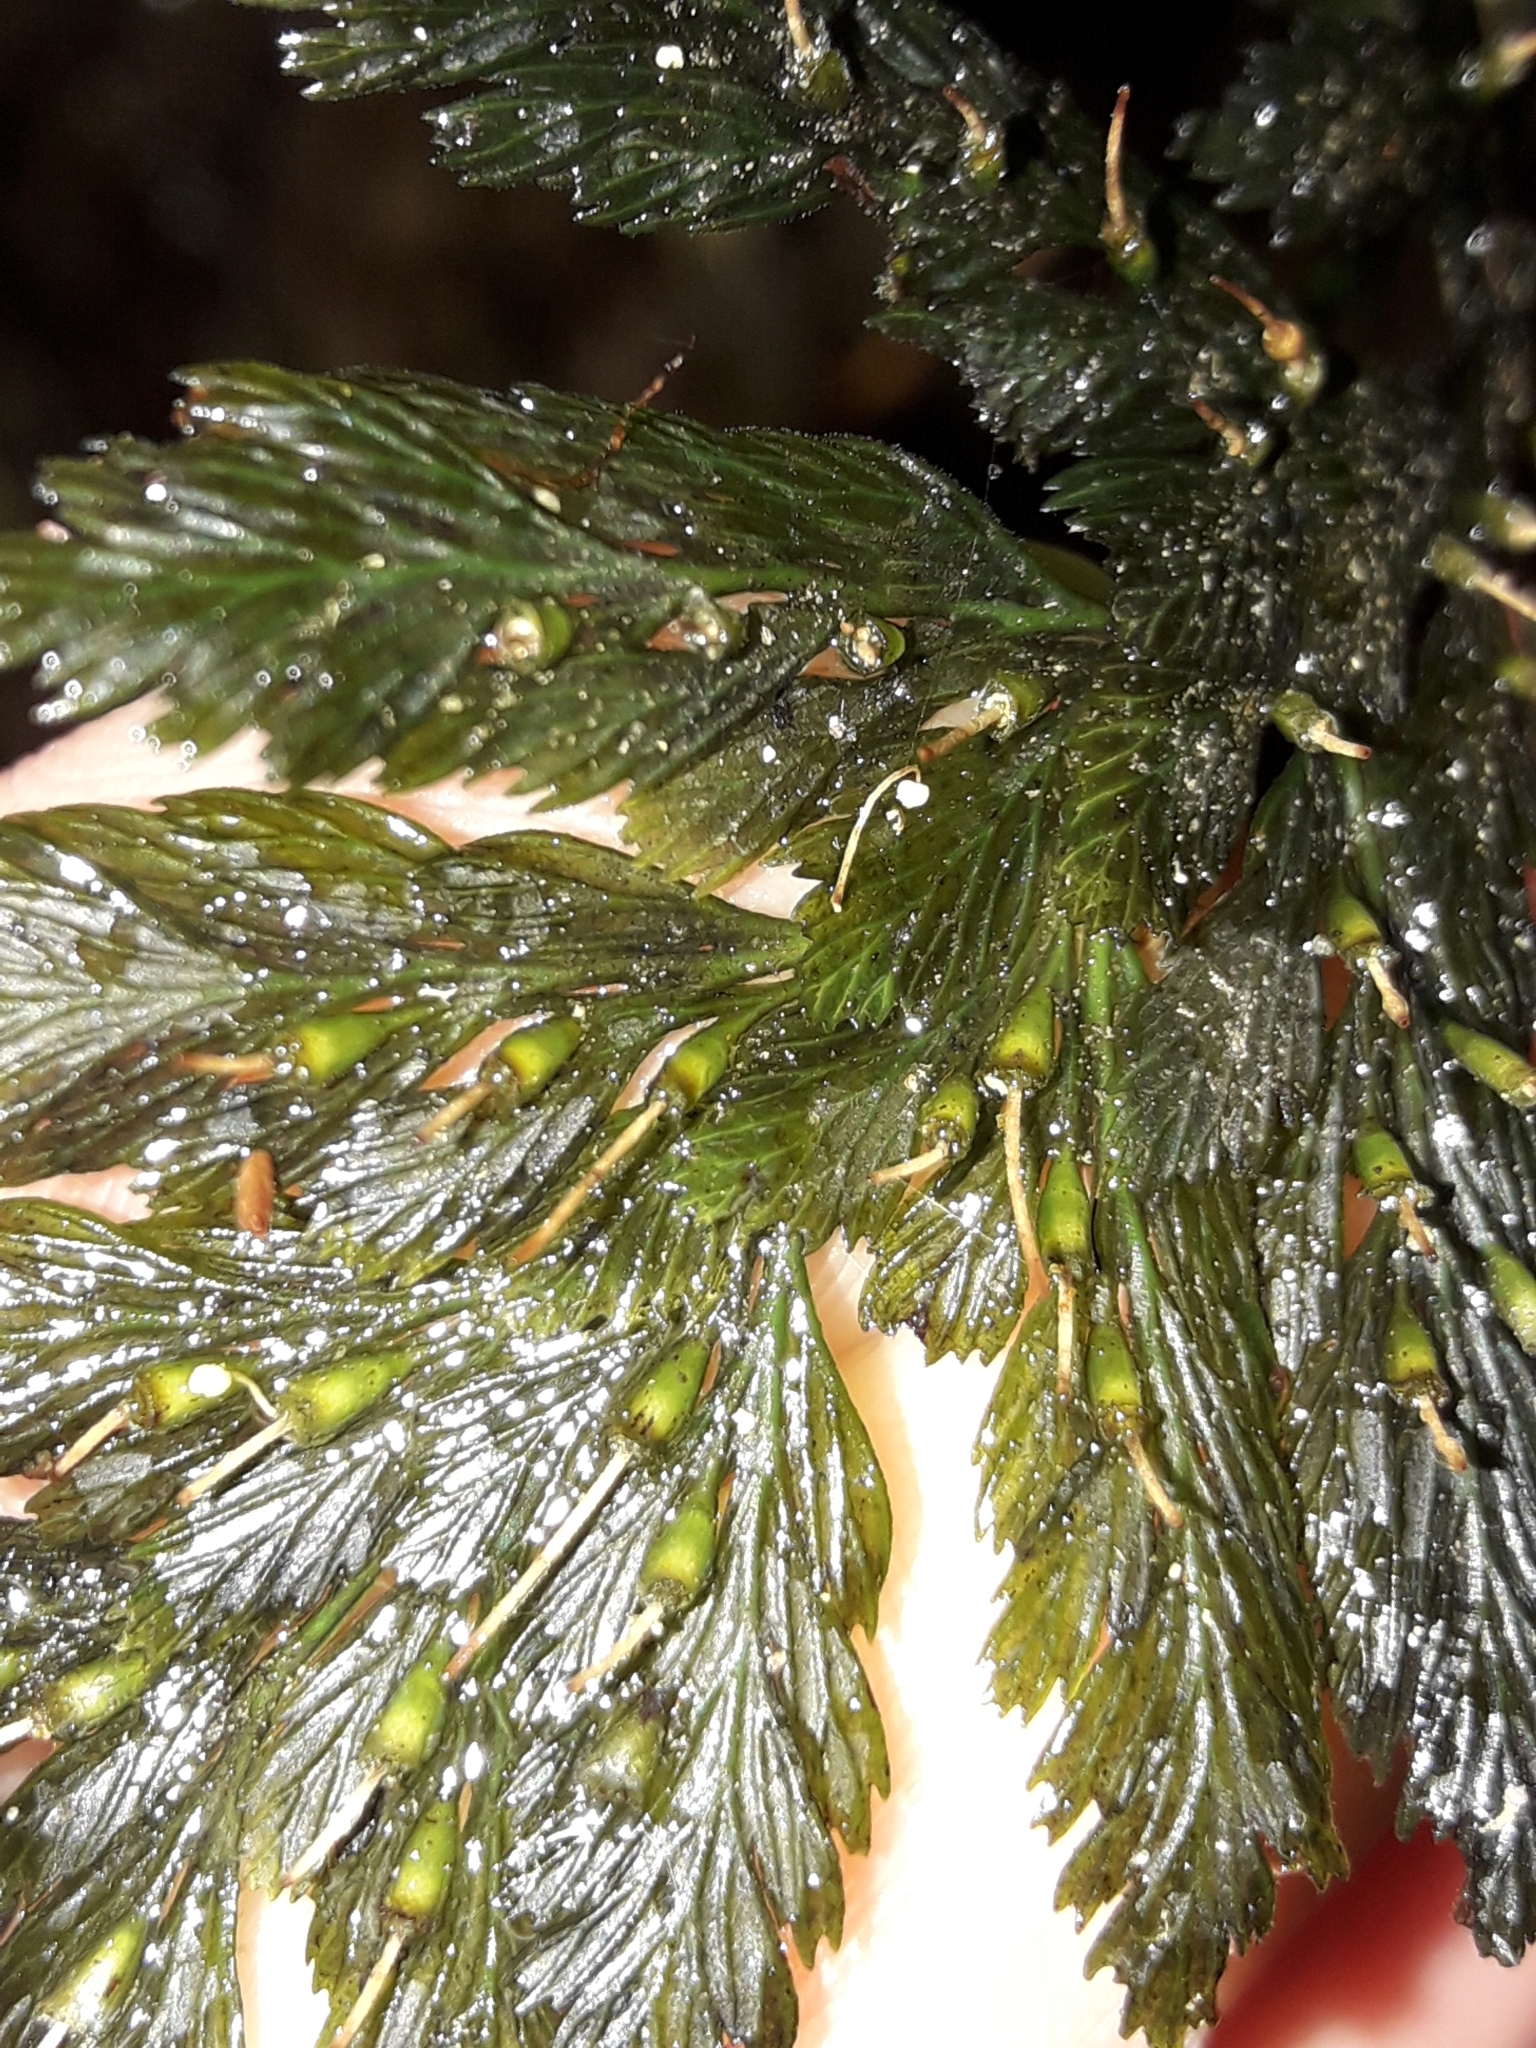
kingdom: Plantae
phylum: Tracheophyta
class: Polypodiopsida
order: Hymenophyllales
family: Hymenophyllaceae
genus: Abrodictyum
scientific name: Abrodictyum elongatum
